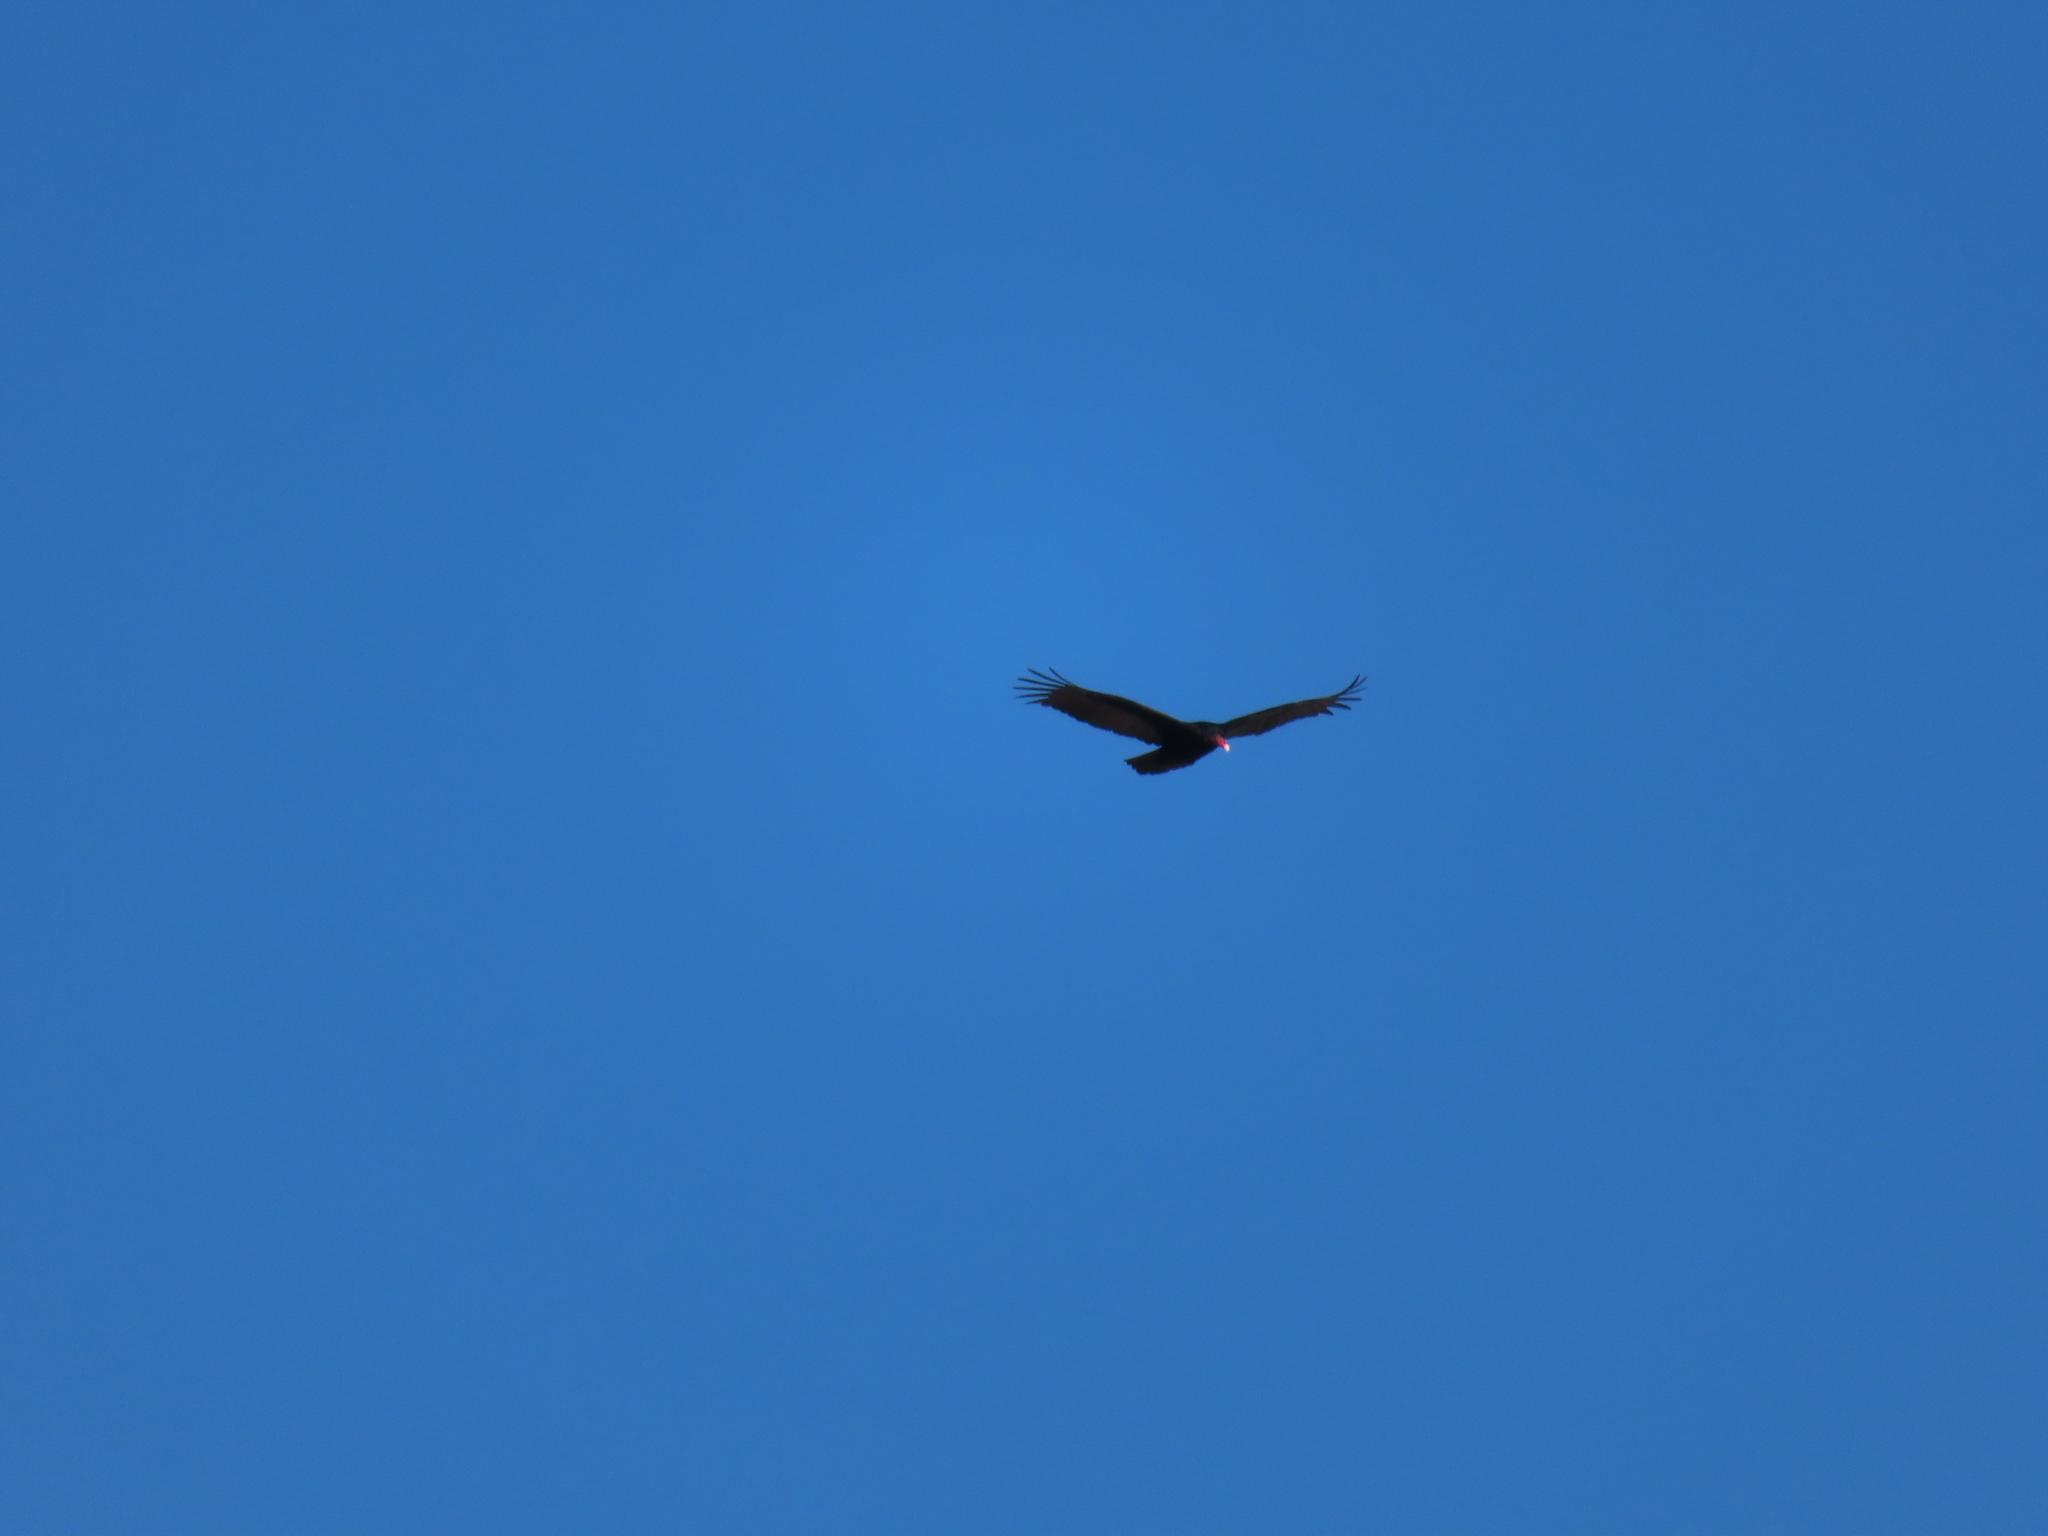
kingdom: Animalia
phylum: Chordata
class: Aves
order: Accipitriformes
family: Cathartidae
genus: Cathartes
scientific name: Cathartes aura
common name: Turkey vulture
